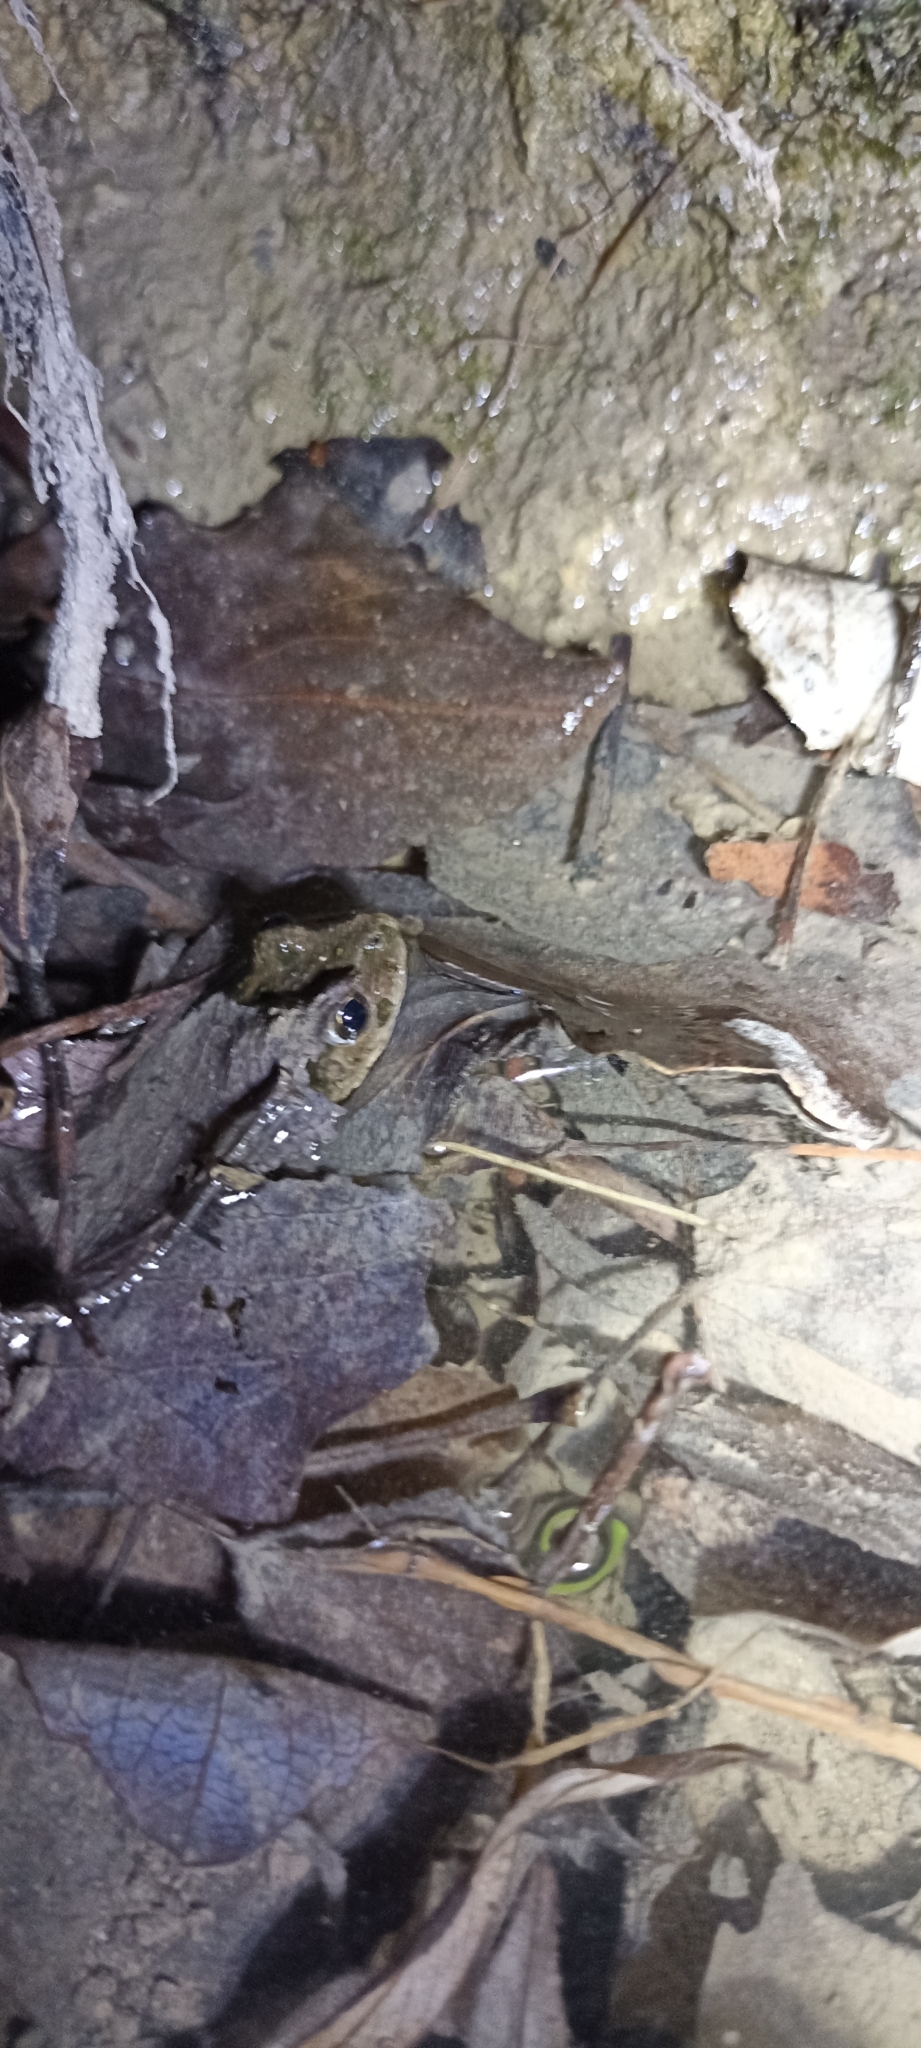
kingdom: Animalia
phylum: Chordata
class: Amphibia
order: Anura
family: Pelodytidae
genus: Pelodytes
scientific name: Pelodytes punctatus
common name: Parsley frog
